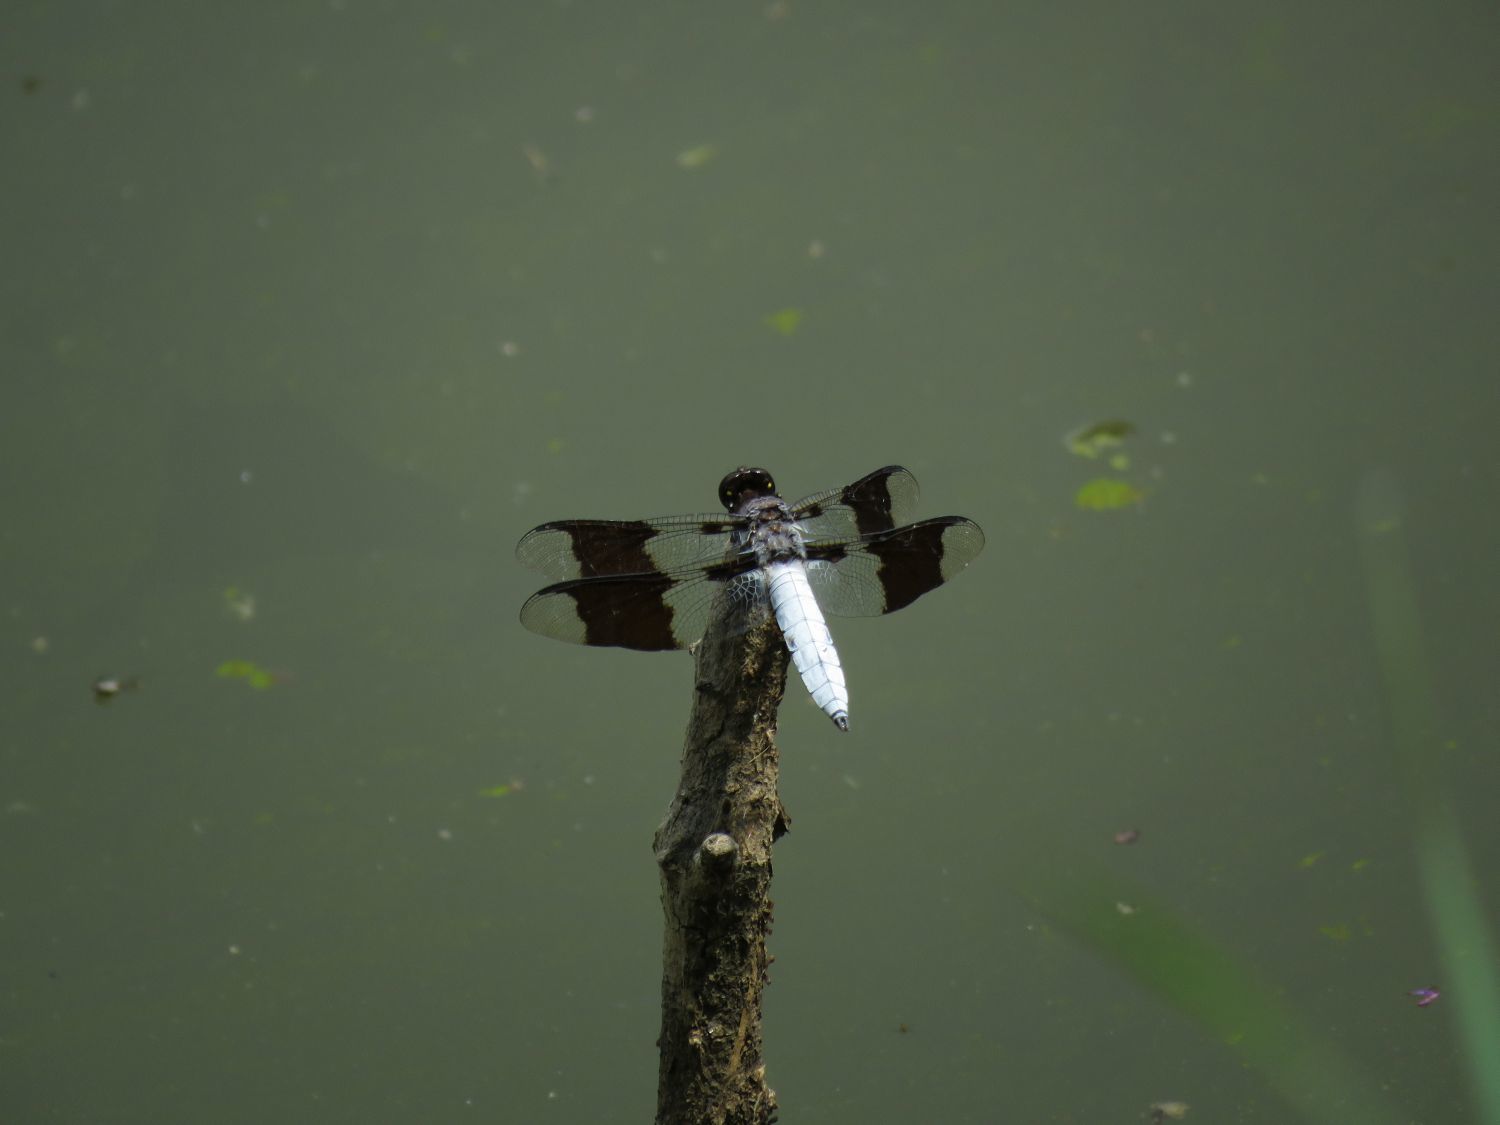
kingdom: Animalia
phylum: Arthropoda
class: Insecta
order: Odonata
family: Libellulidae
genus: Plathemis
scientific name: Plathemis lydia
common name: Common whitetail
